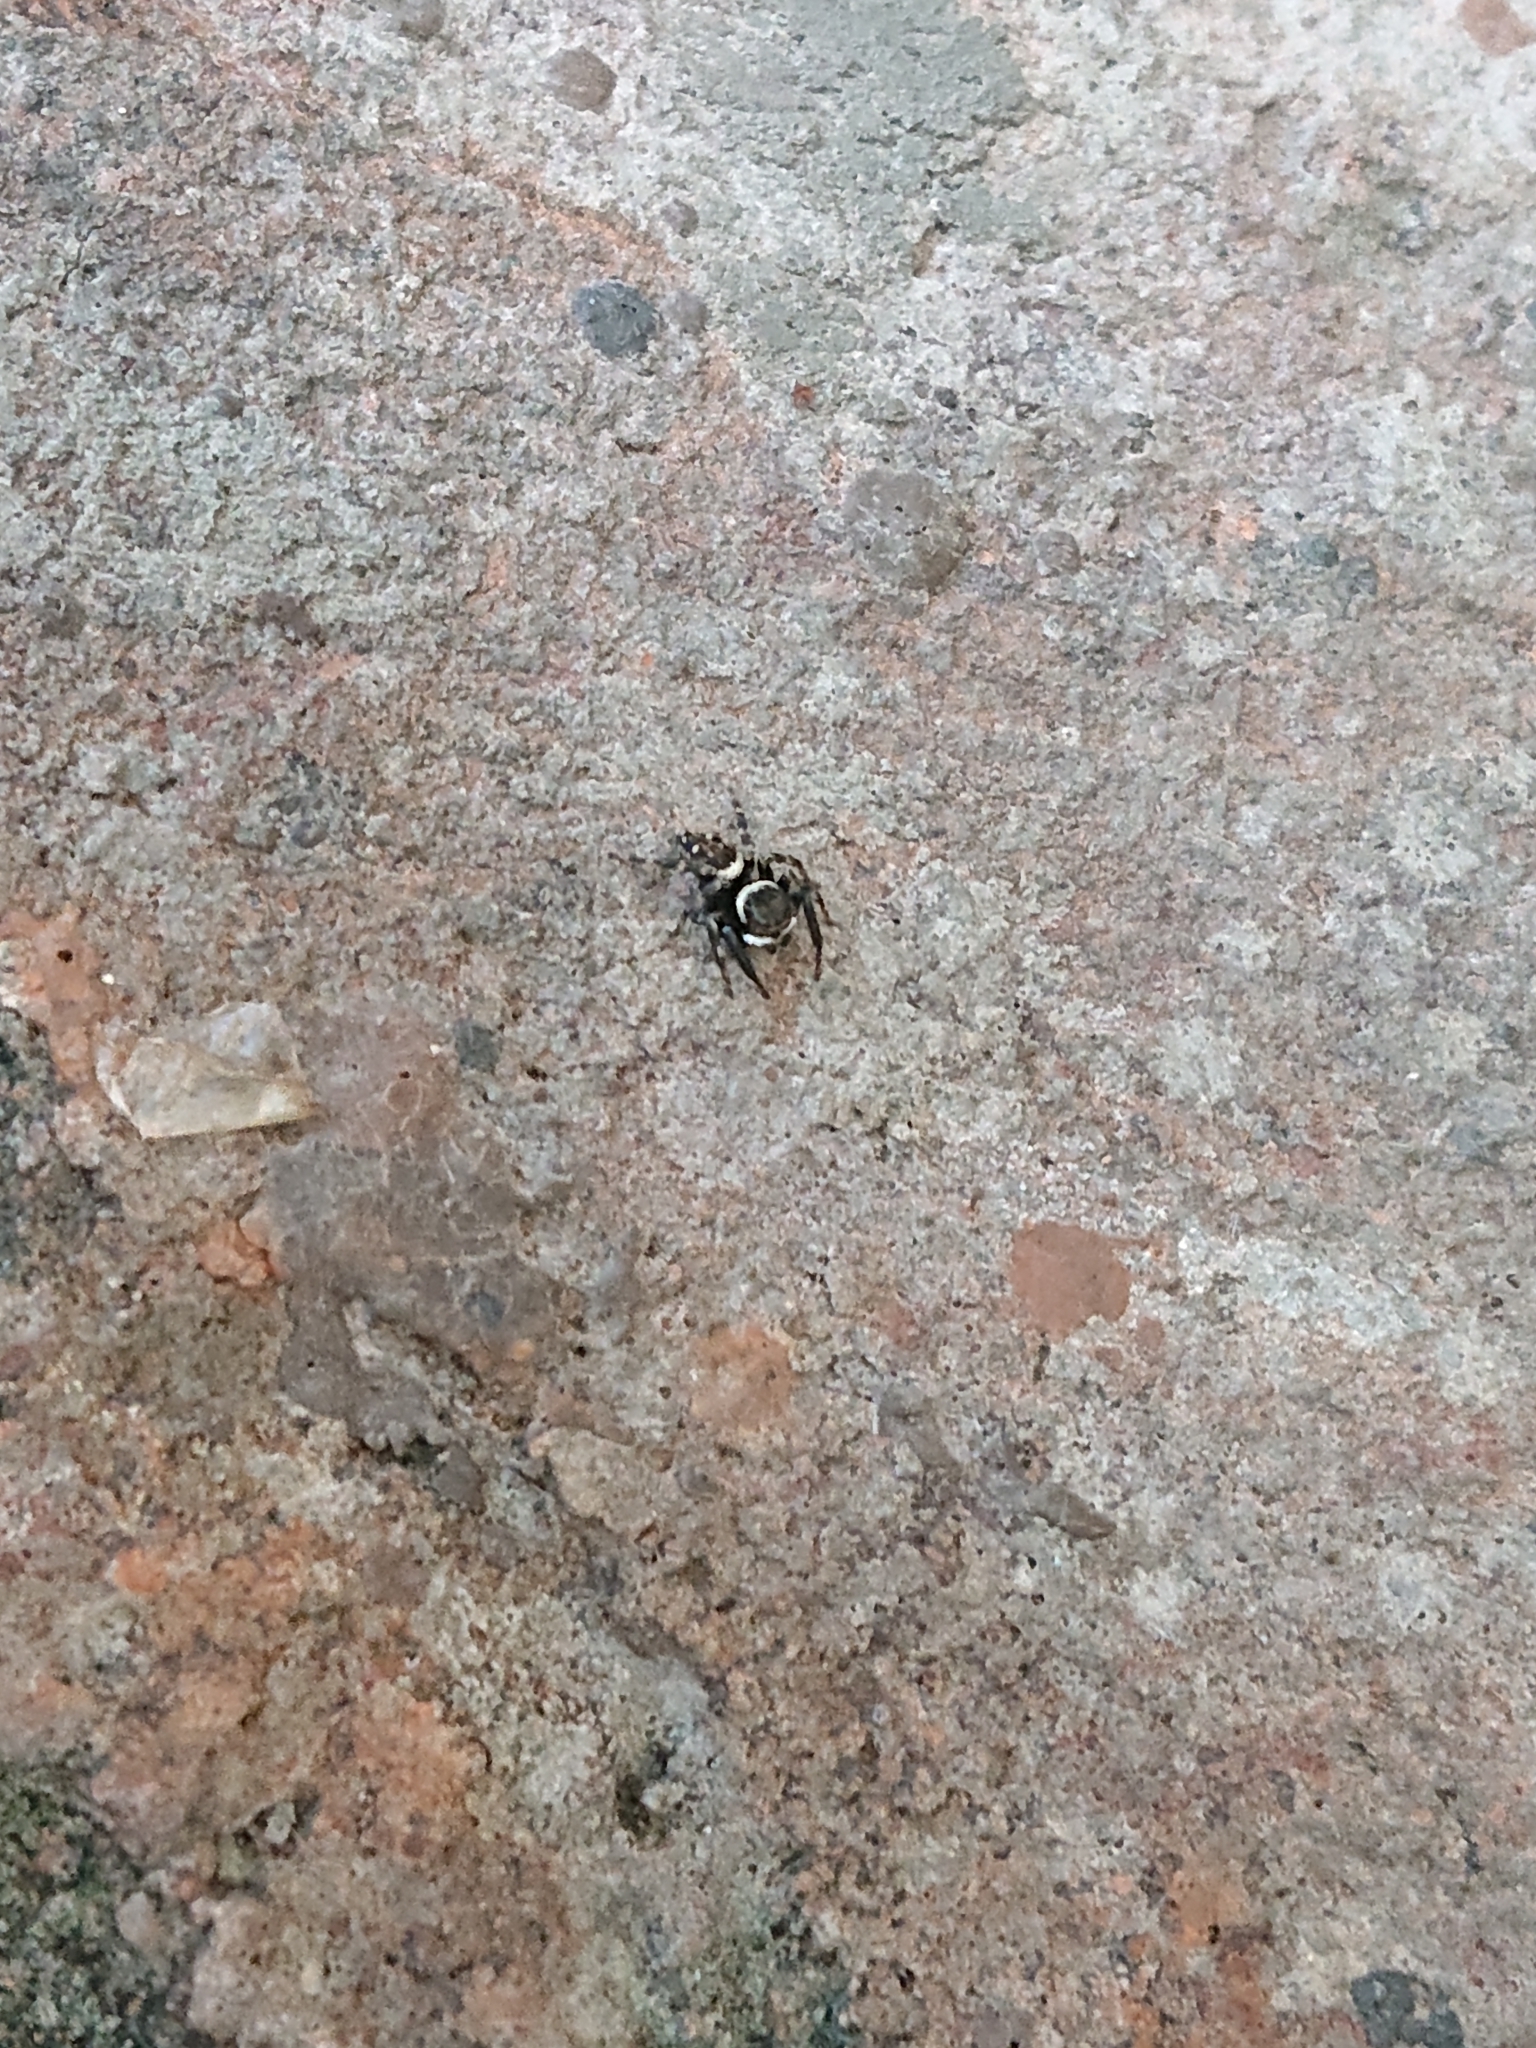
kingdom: Animalia
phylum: Arthropoda
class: Arachnida
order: Araneae
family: Salticidae
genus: Hasarius
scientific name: Hasarius adansoni
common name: Jumping spider
